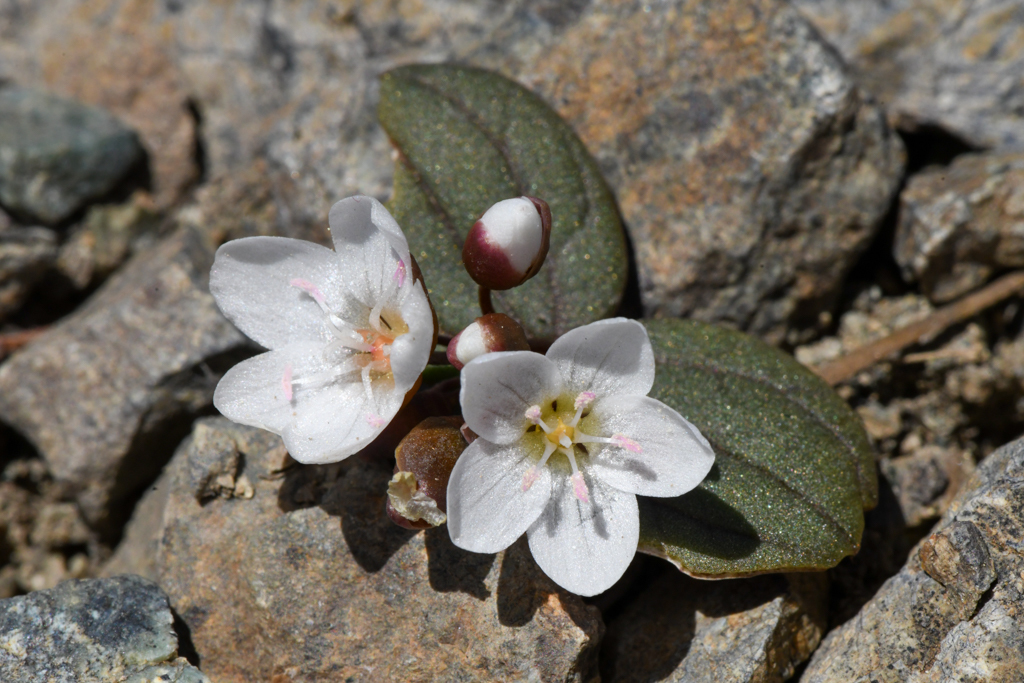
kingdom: Plantae
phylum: Tracheophyta
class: Magnoliopsida
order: Caryophyllales
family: Montiaceae
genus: Claytonia
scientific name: Claytonia obovata
